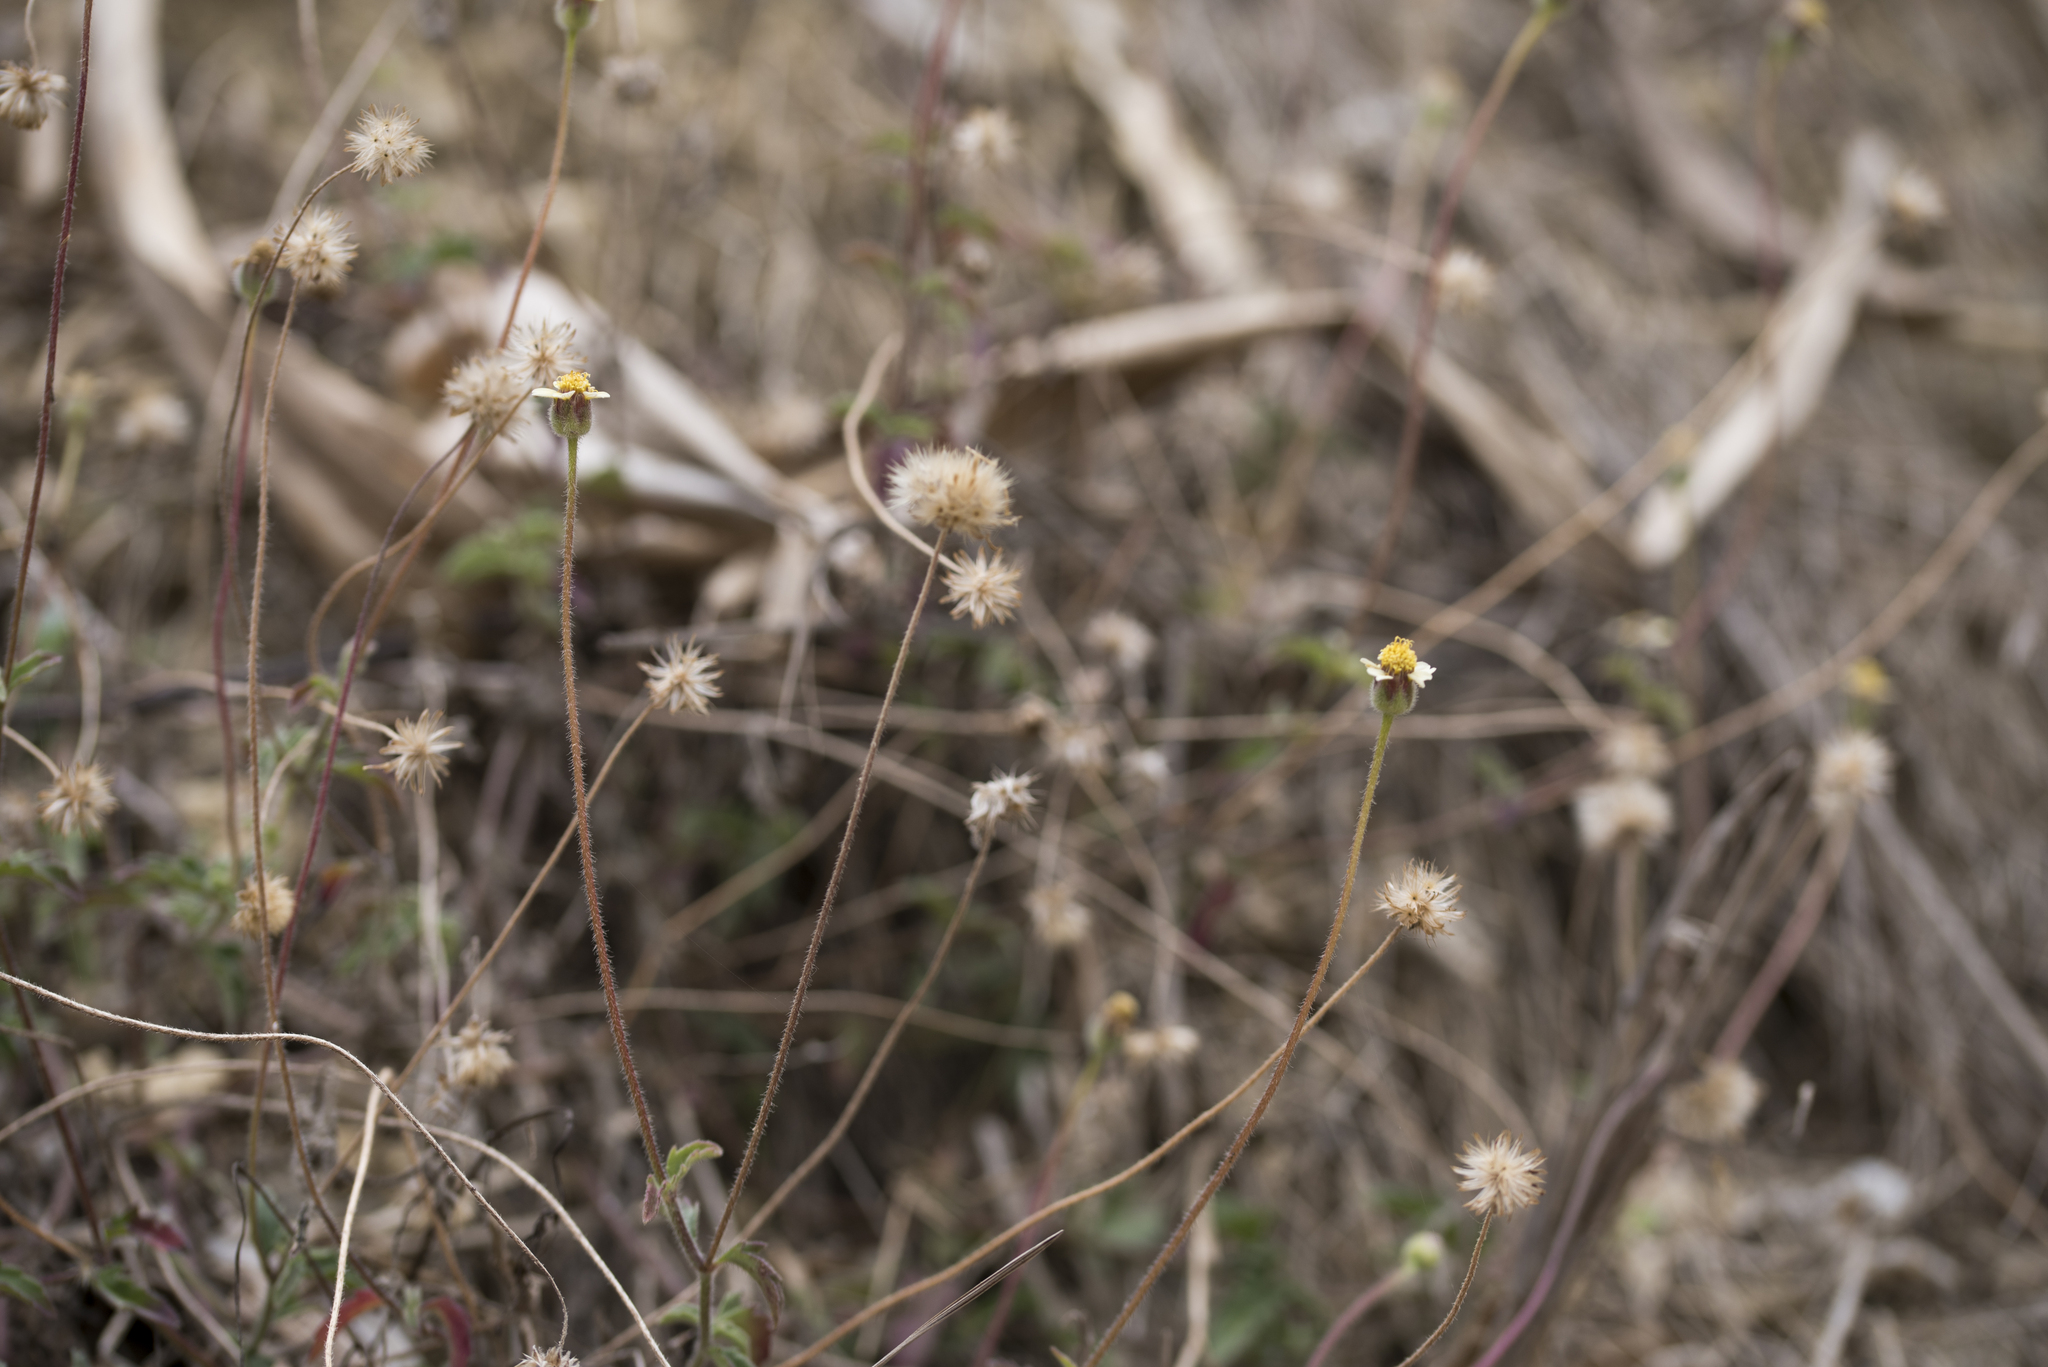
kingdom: Plantae
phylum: Tracheophyta
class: Magnoliopsida
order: Asterales
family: Asteraceae
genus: Tridax
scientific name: Tridax procumbens
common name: Coatbuttons
